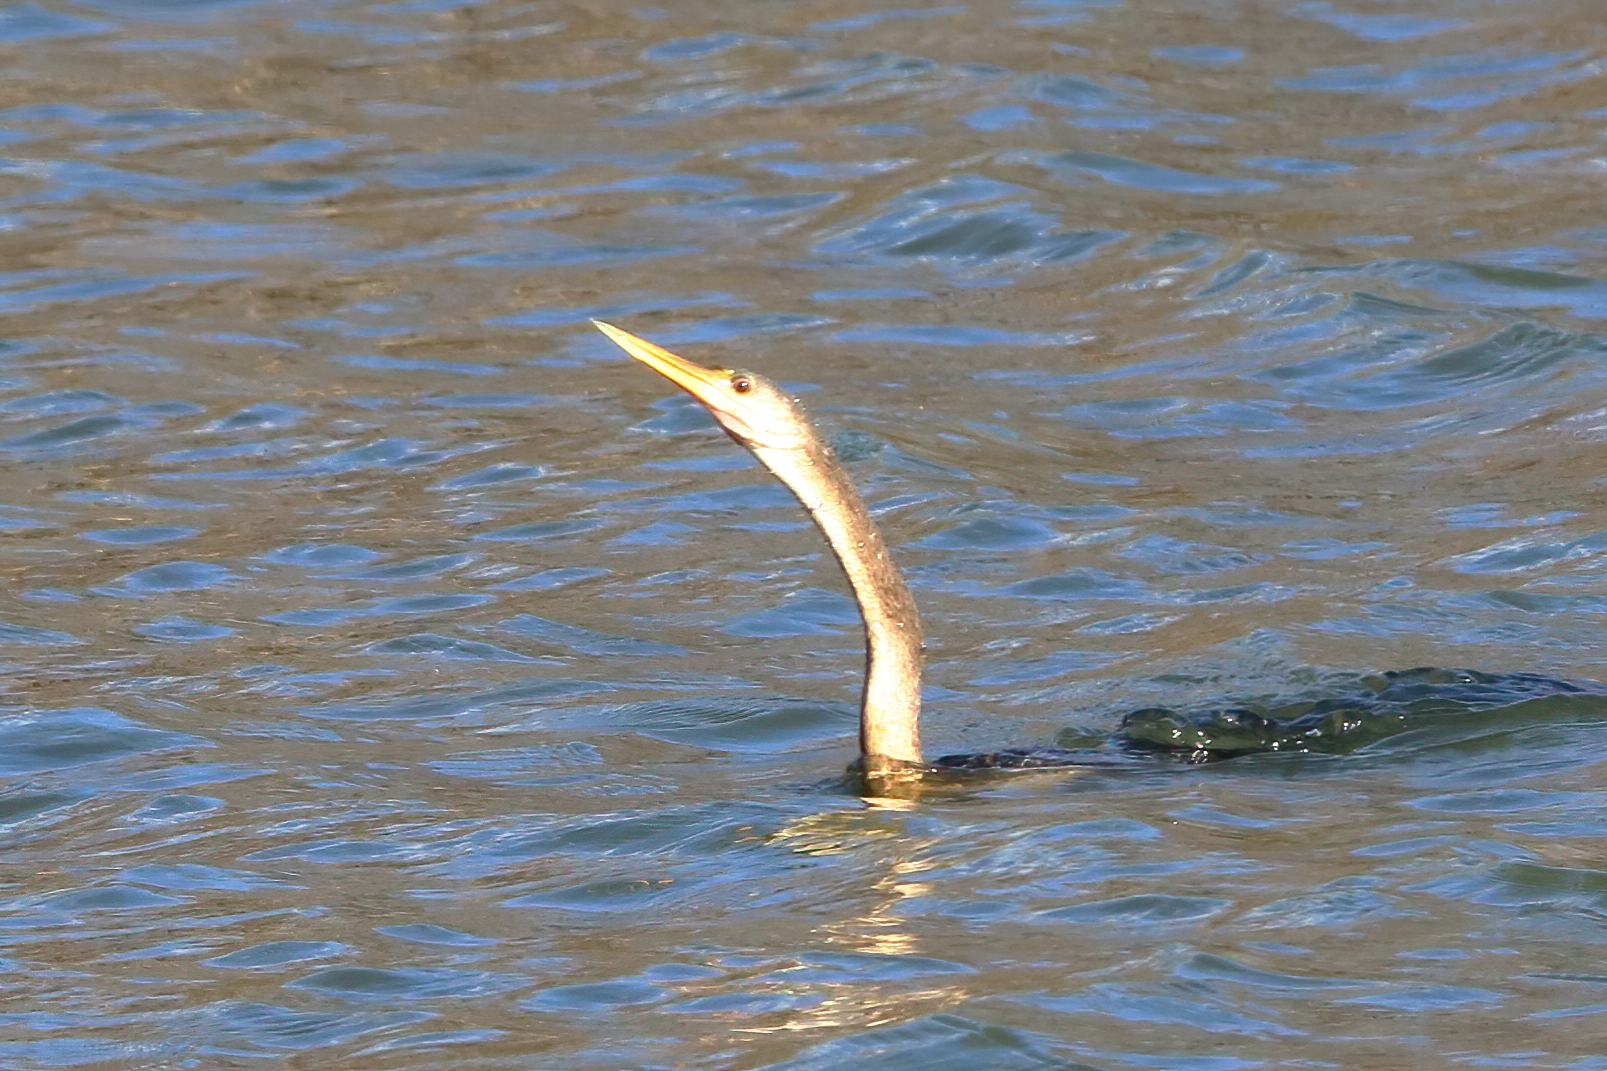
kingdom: Animalia
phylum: Chordata
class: Aves
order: Suliformes
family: Anhingidae
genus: Anhinga
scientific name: Anhinga anhinga
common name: Anhinga
